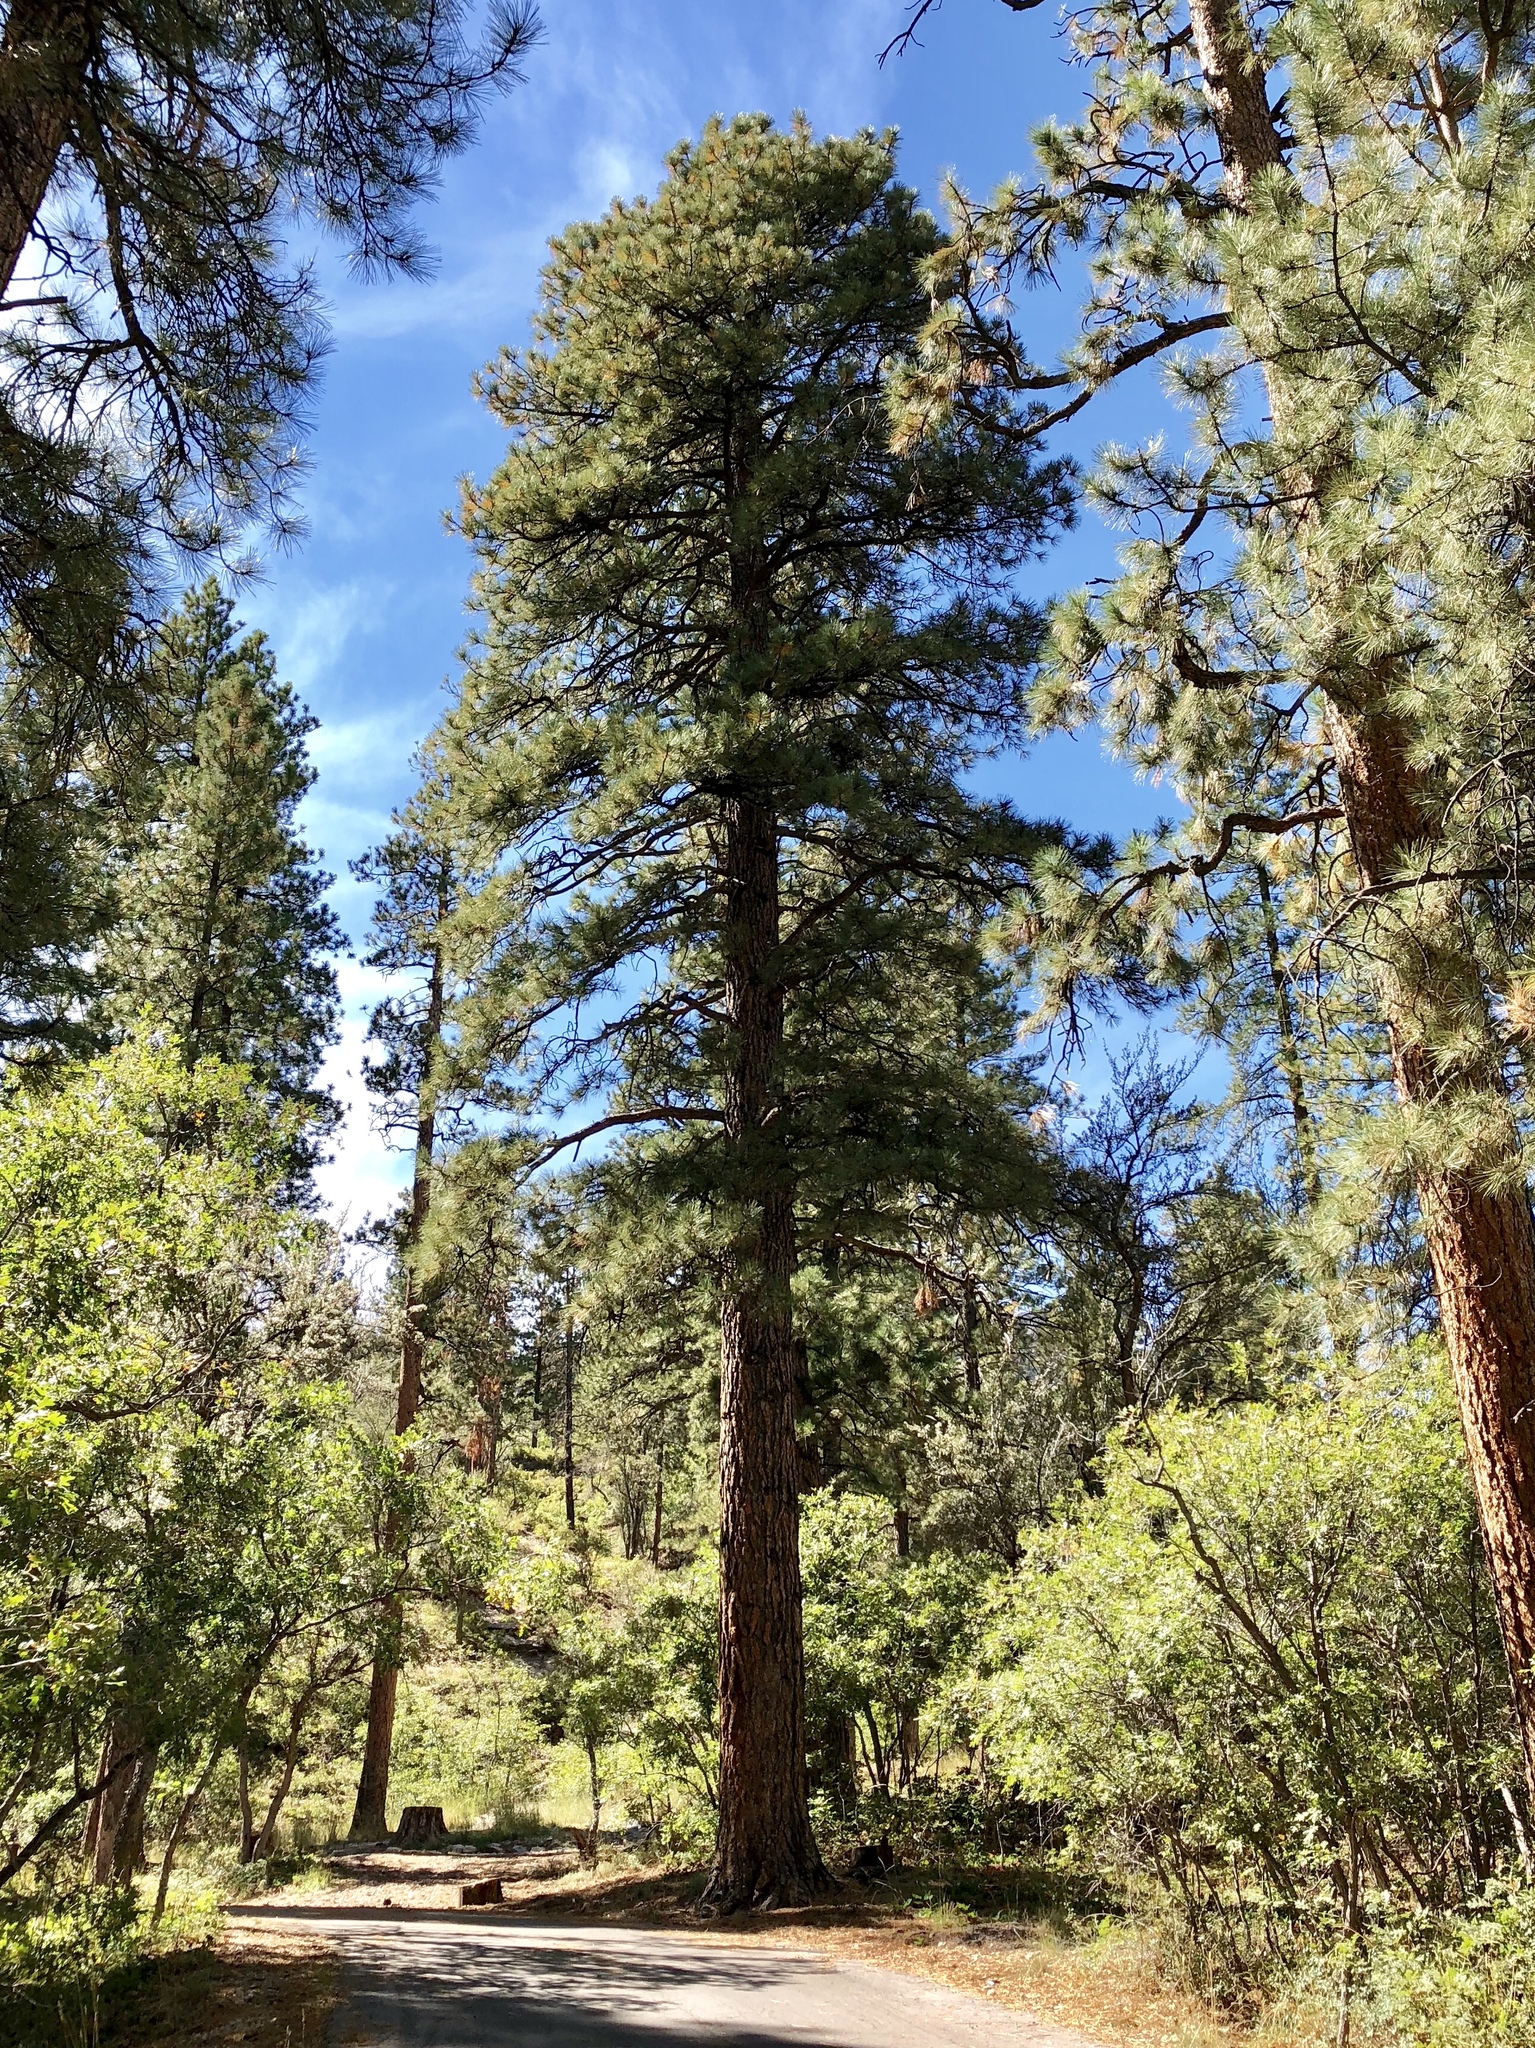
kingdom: Plantae
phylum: Tracheophyta
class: Pinopsida
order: Pinales
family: Pinaceae
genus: Pinus
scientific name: Pinus ponderosa
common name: Western yellow-pine
